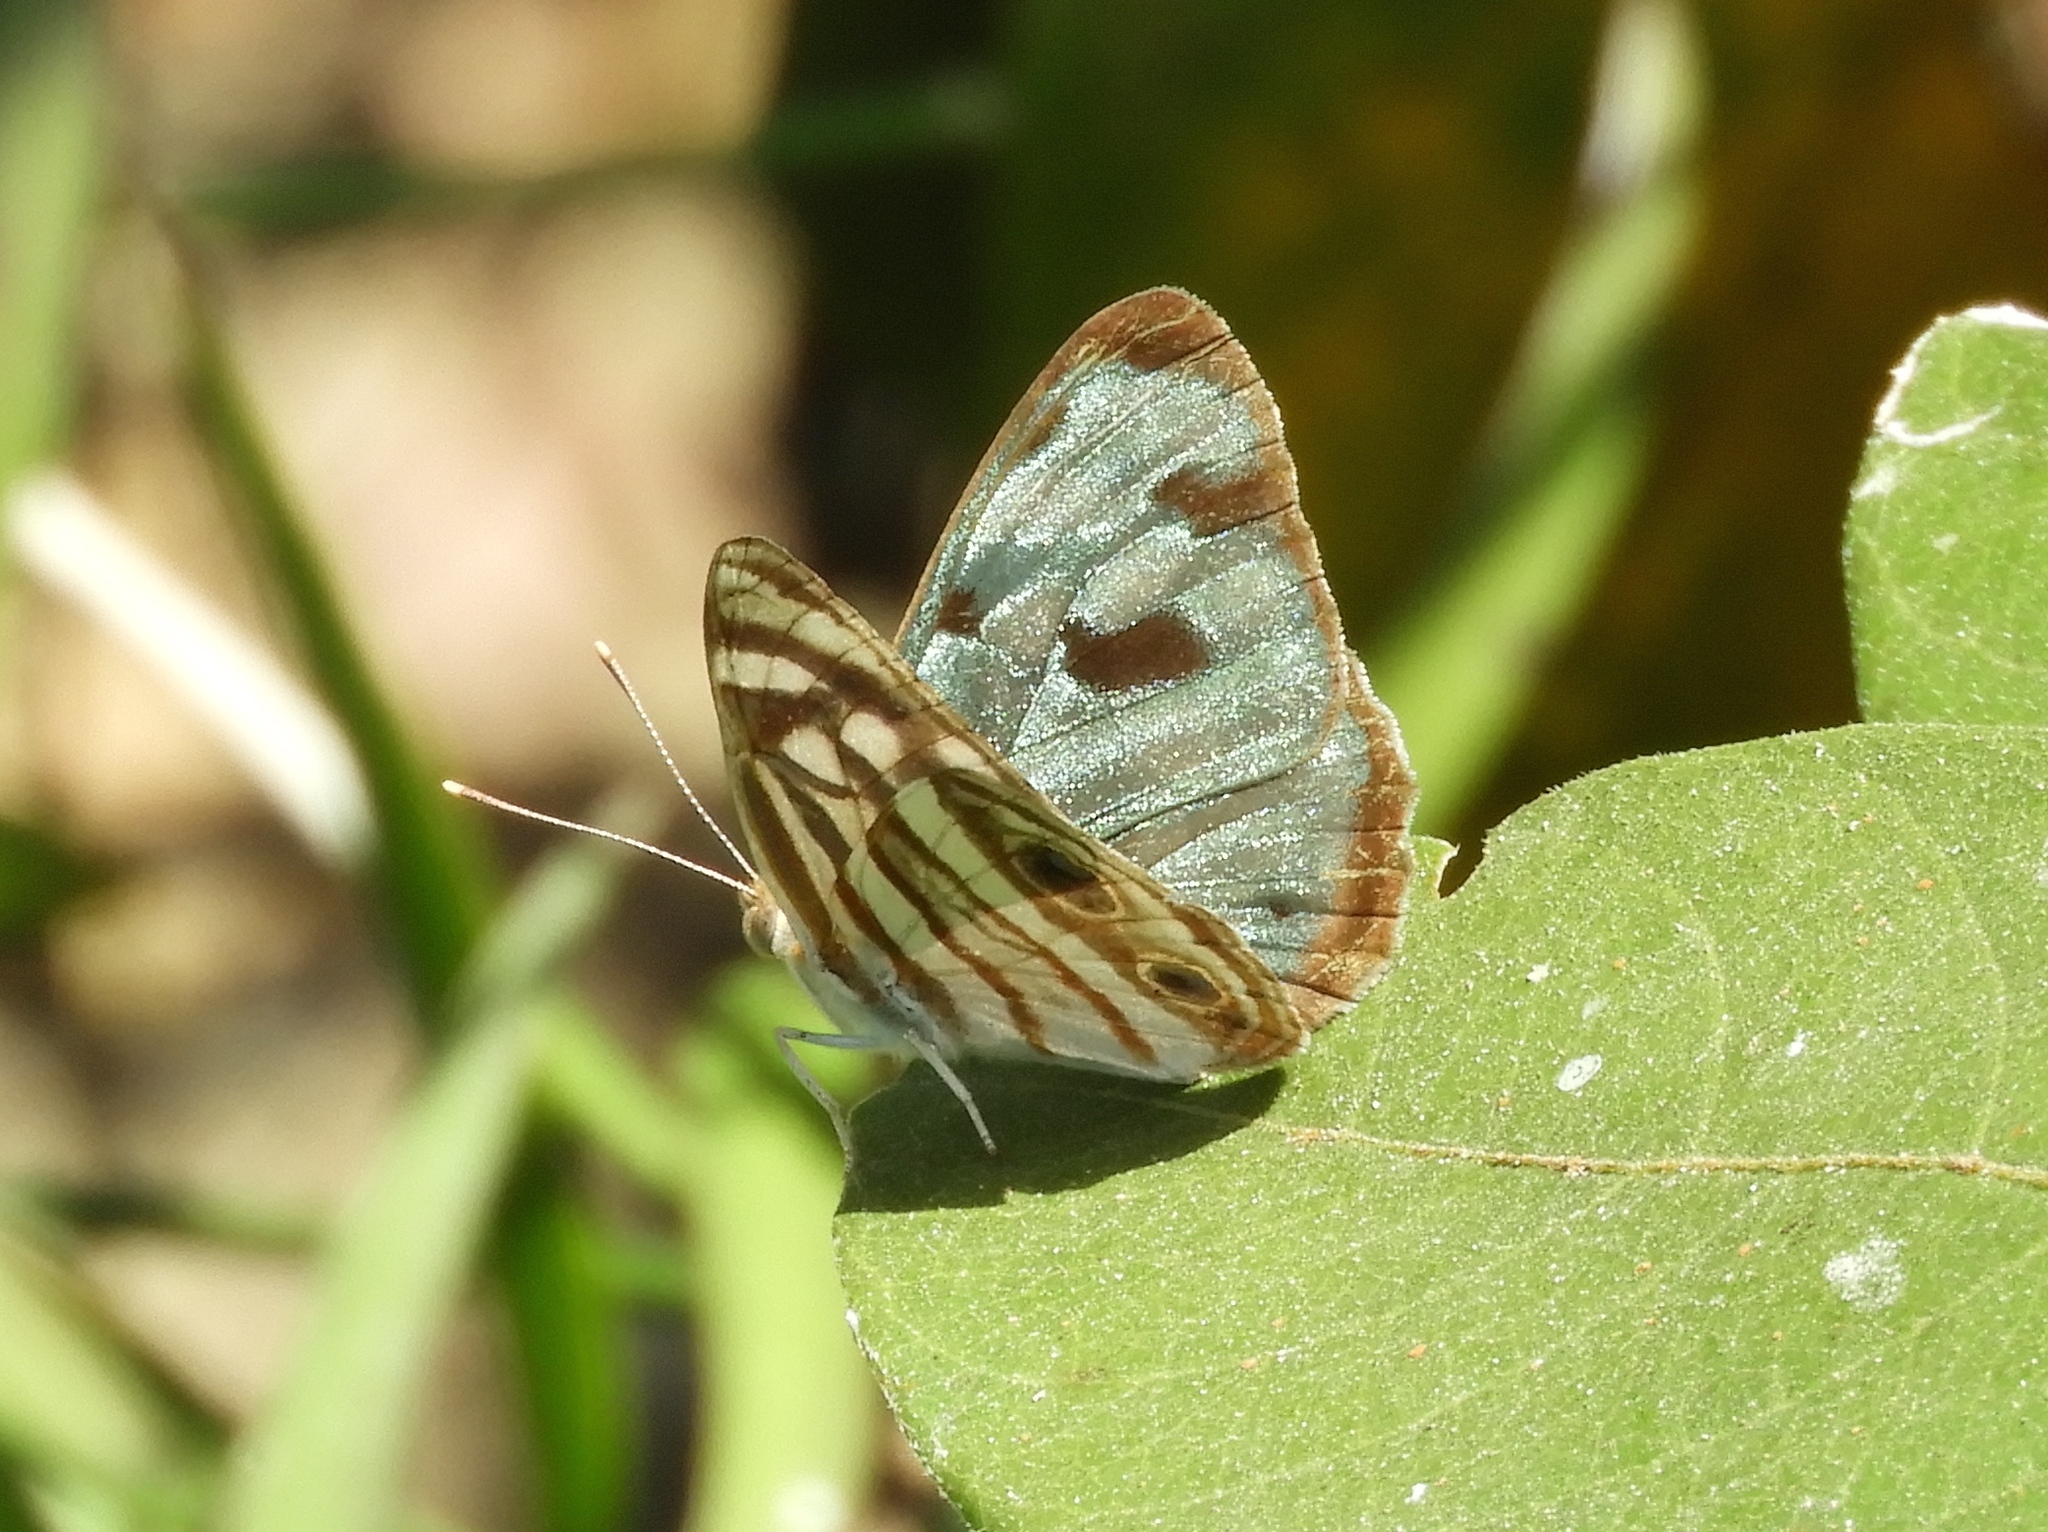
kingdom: Animalia
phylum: Arthropoda
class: Insecta
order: Lepidoptera
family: Nymphalidae
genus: Dynamine
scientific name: Dynamine mylitta
